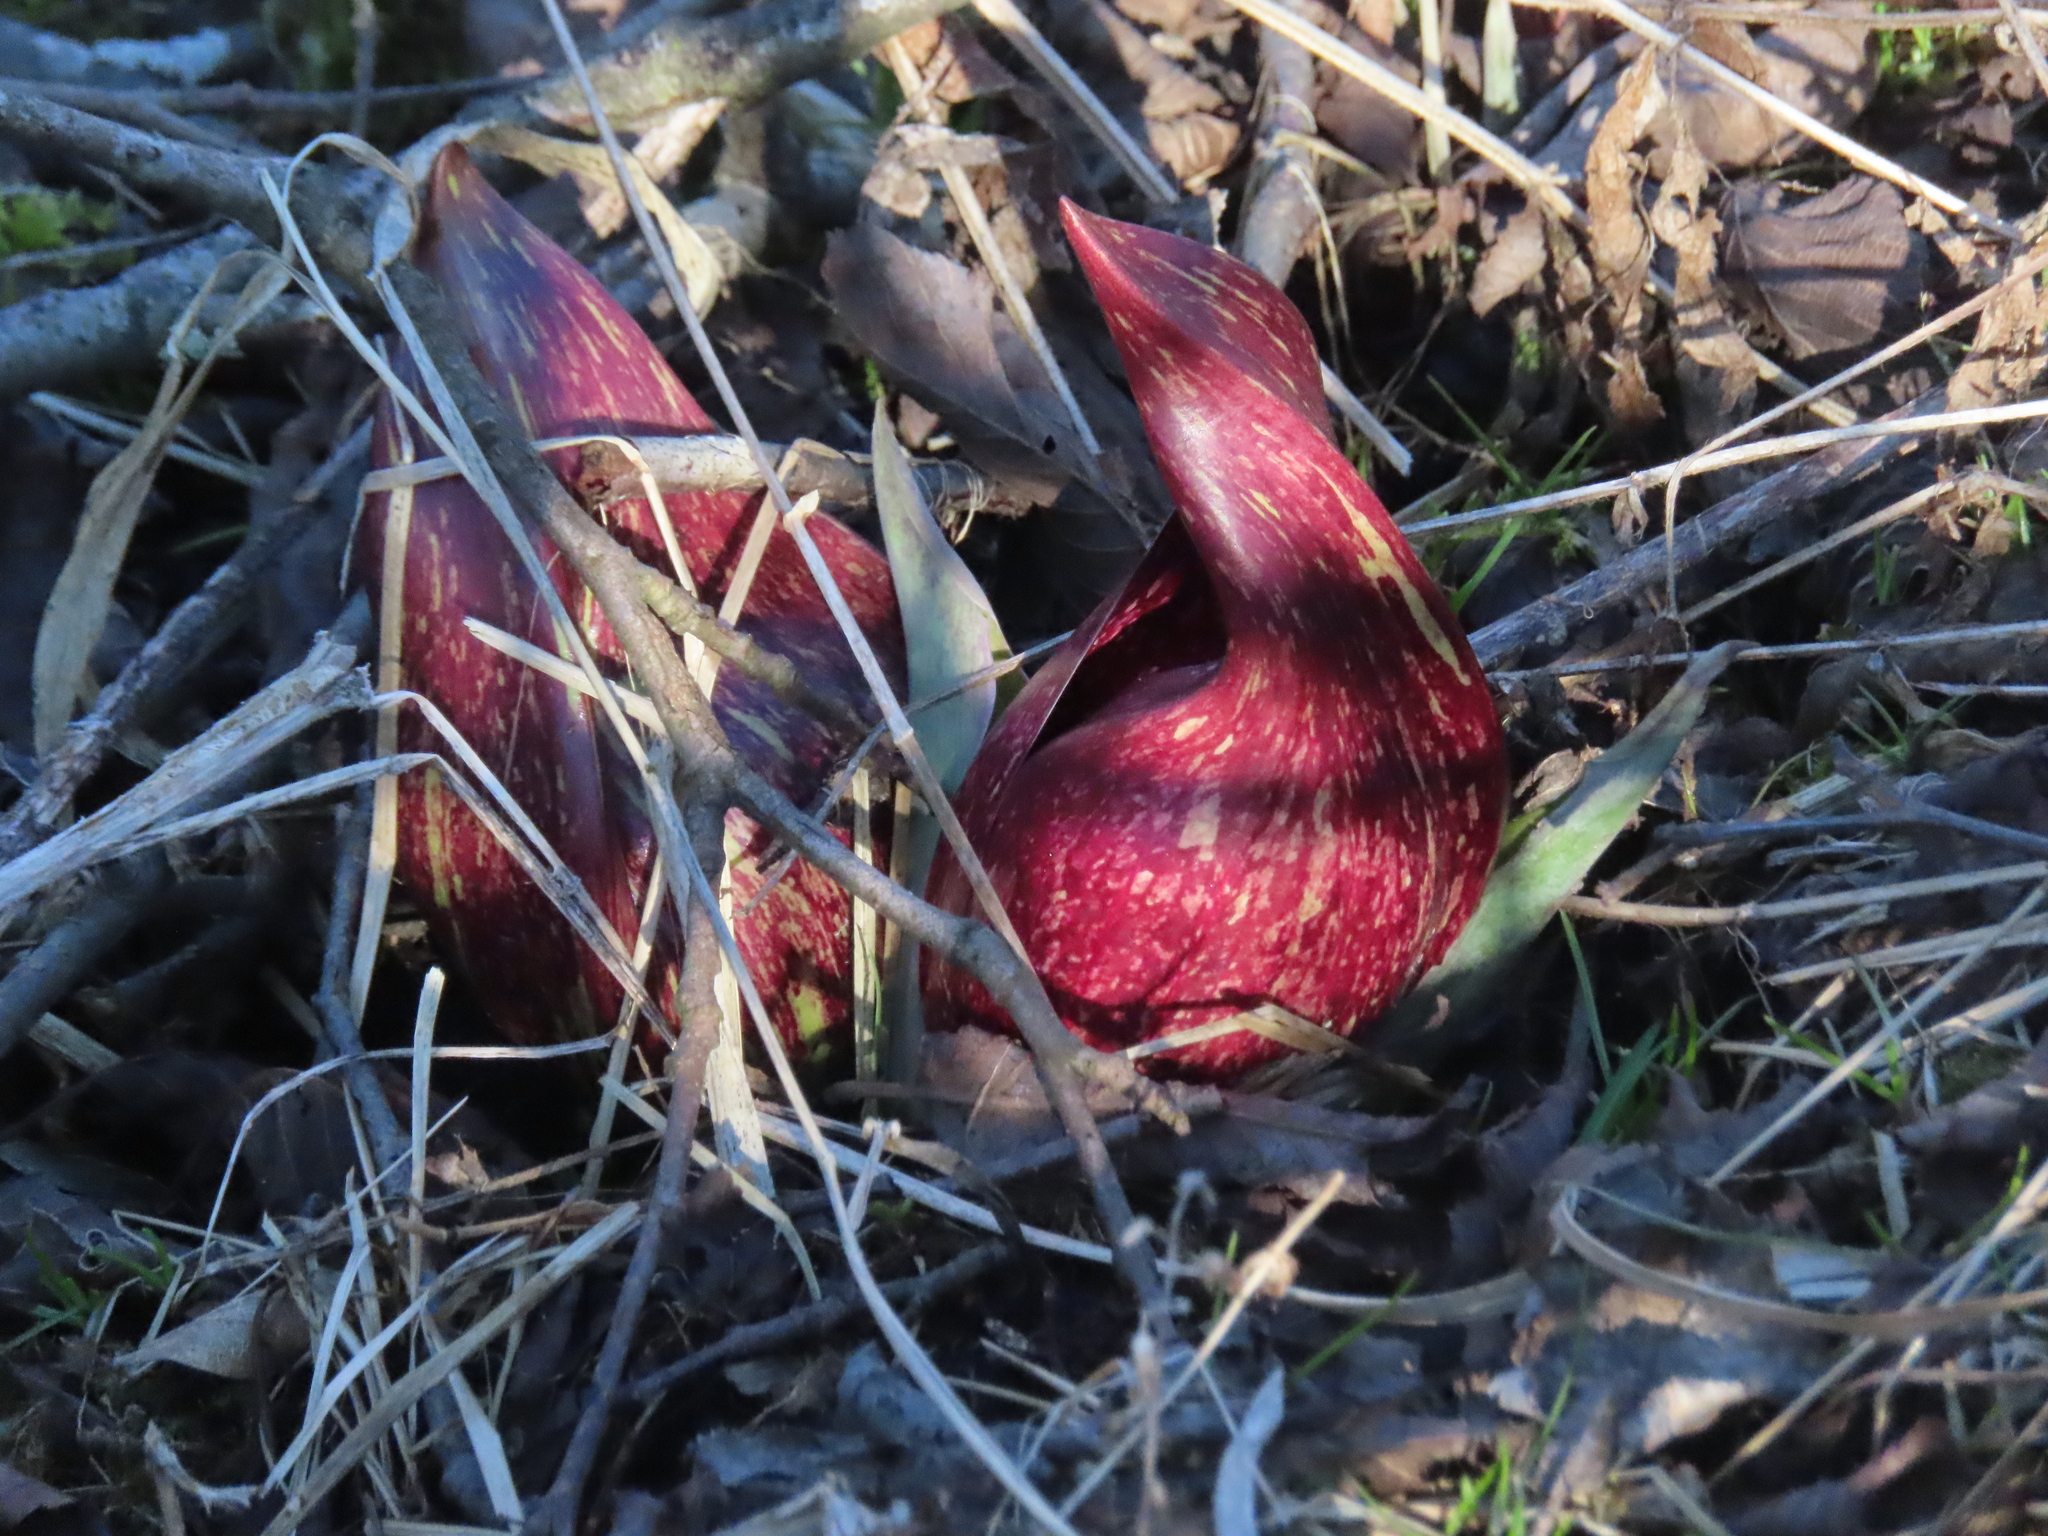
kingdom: Plantae
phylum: Tracheophyta
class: Liliopsida
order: Alismatales
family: Araceae
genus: Symplocarpus
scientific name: Symplocarpus foetidus
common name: Eastern skunk cabbage
